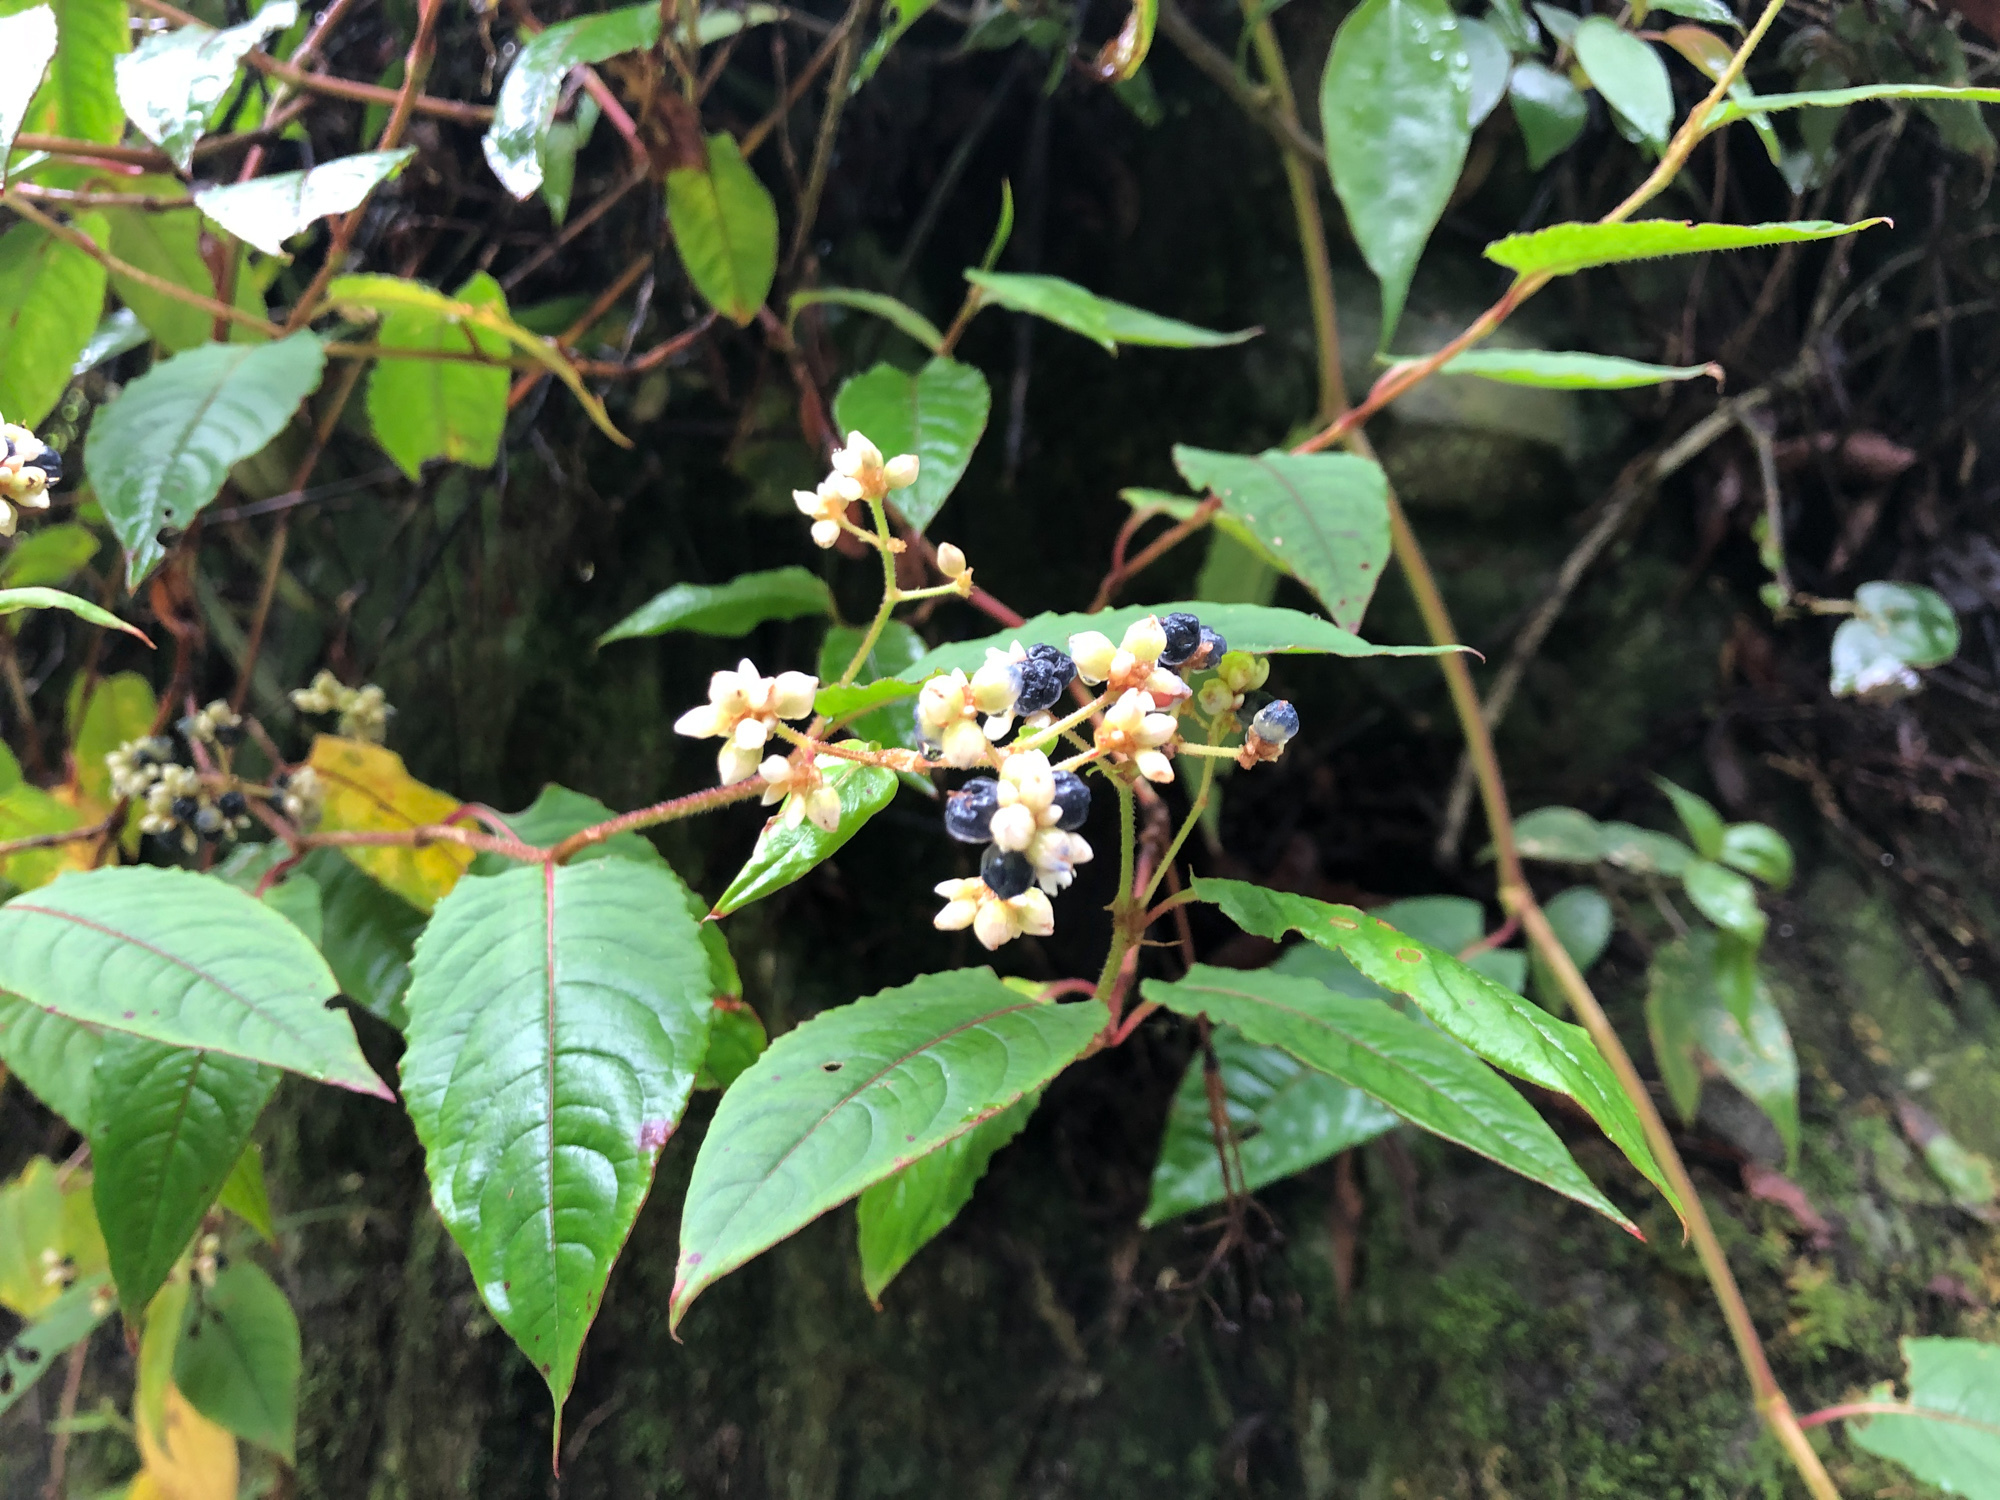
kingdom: Plantae
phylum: Tracheophyta
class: Magnoliopsida
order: Caryophyllales
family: Polygonaceae
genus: Persicaria
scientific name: Persicaria chinensis
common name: Chinese knotweed
